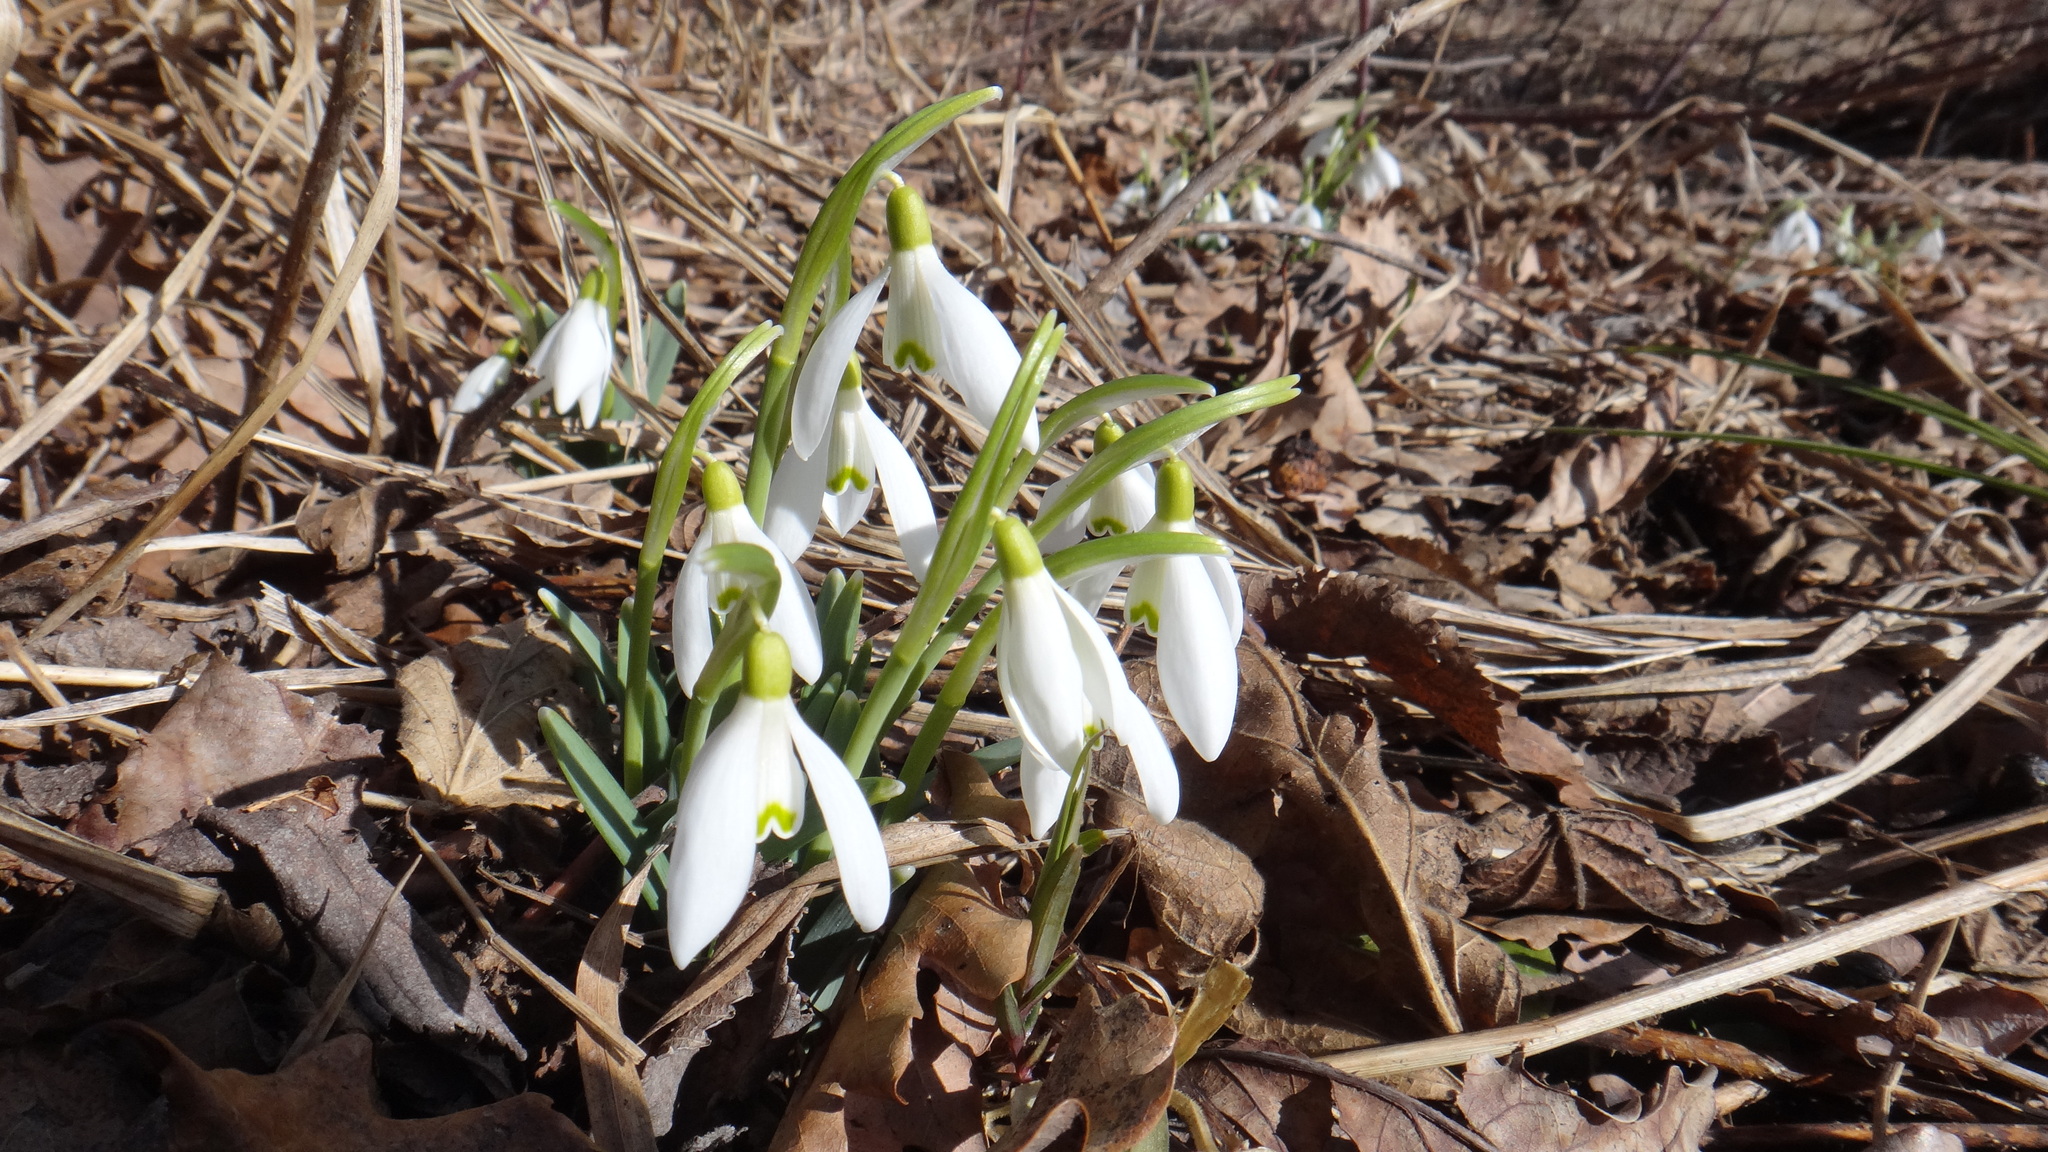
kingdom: Plantae
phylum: Tracheophyta
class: Liliopsida
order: Asparagales
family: Amaryllidaceae
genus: Galanthus
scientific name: Galanthus nivalis
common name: Snowdrop
